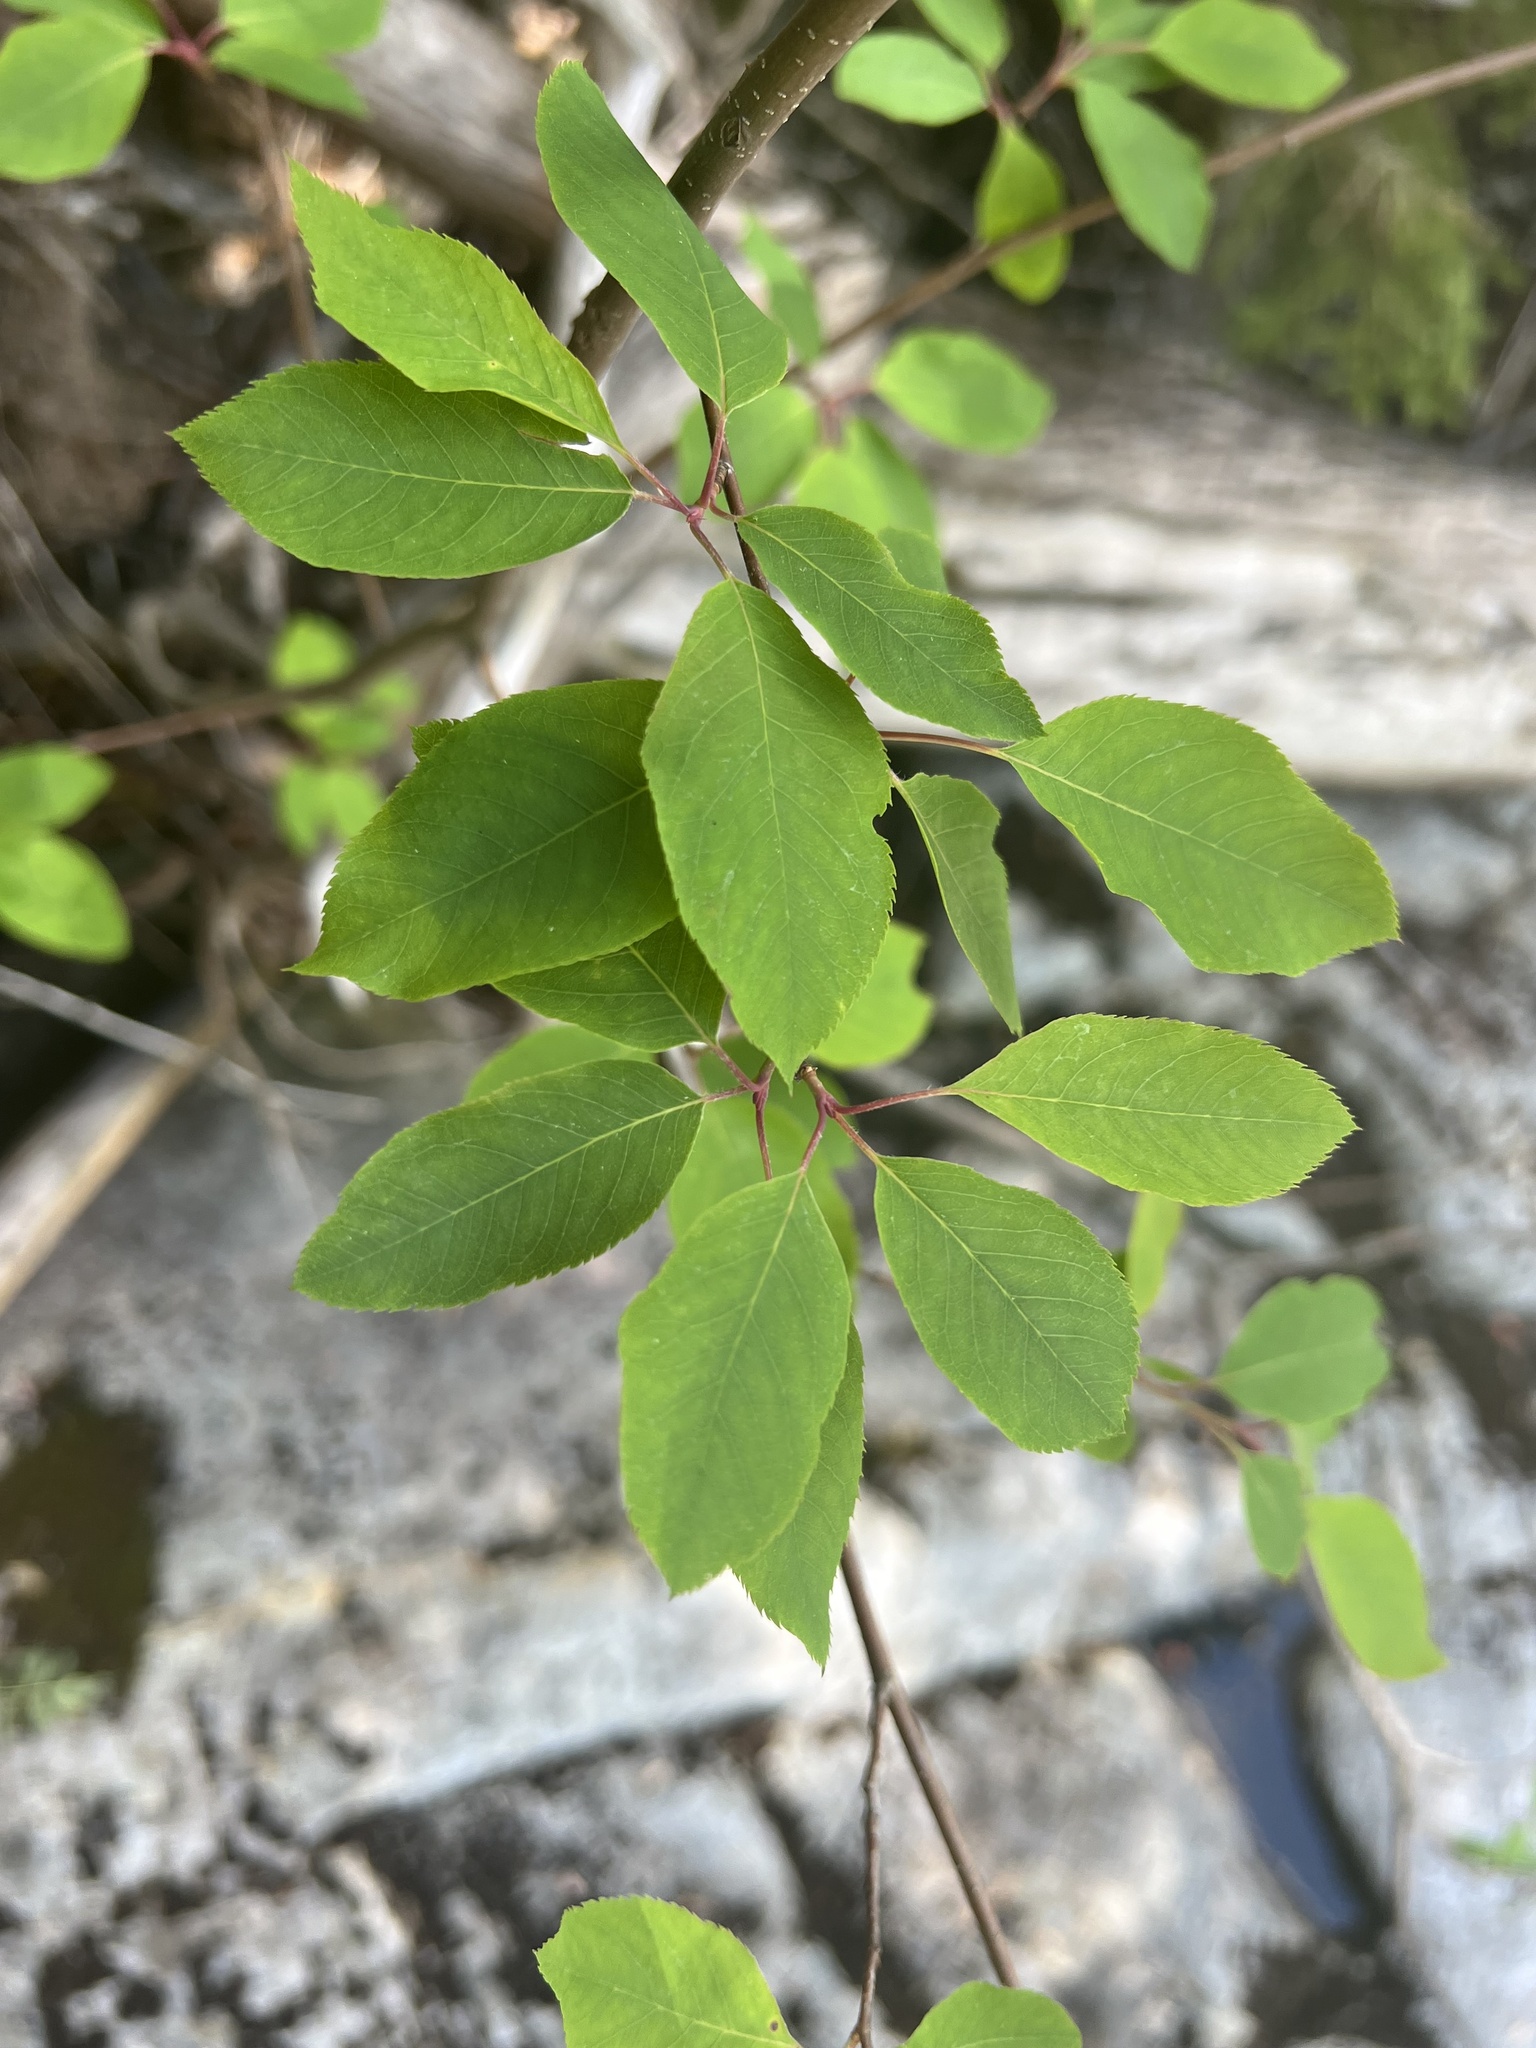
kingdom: Plantae
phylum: Tracheophyta
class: Magnoliopsida
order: Aquifoliales
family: Aquifoliaceae
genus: Ilex
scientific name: Ilex mucronata
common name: Catberry
